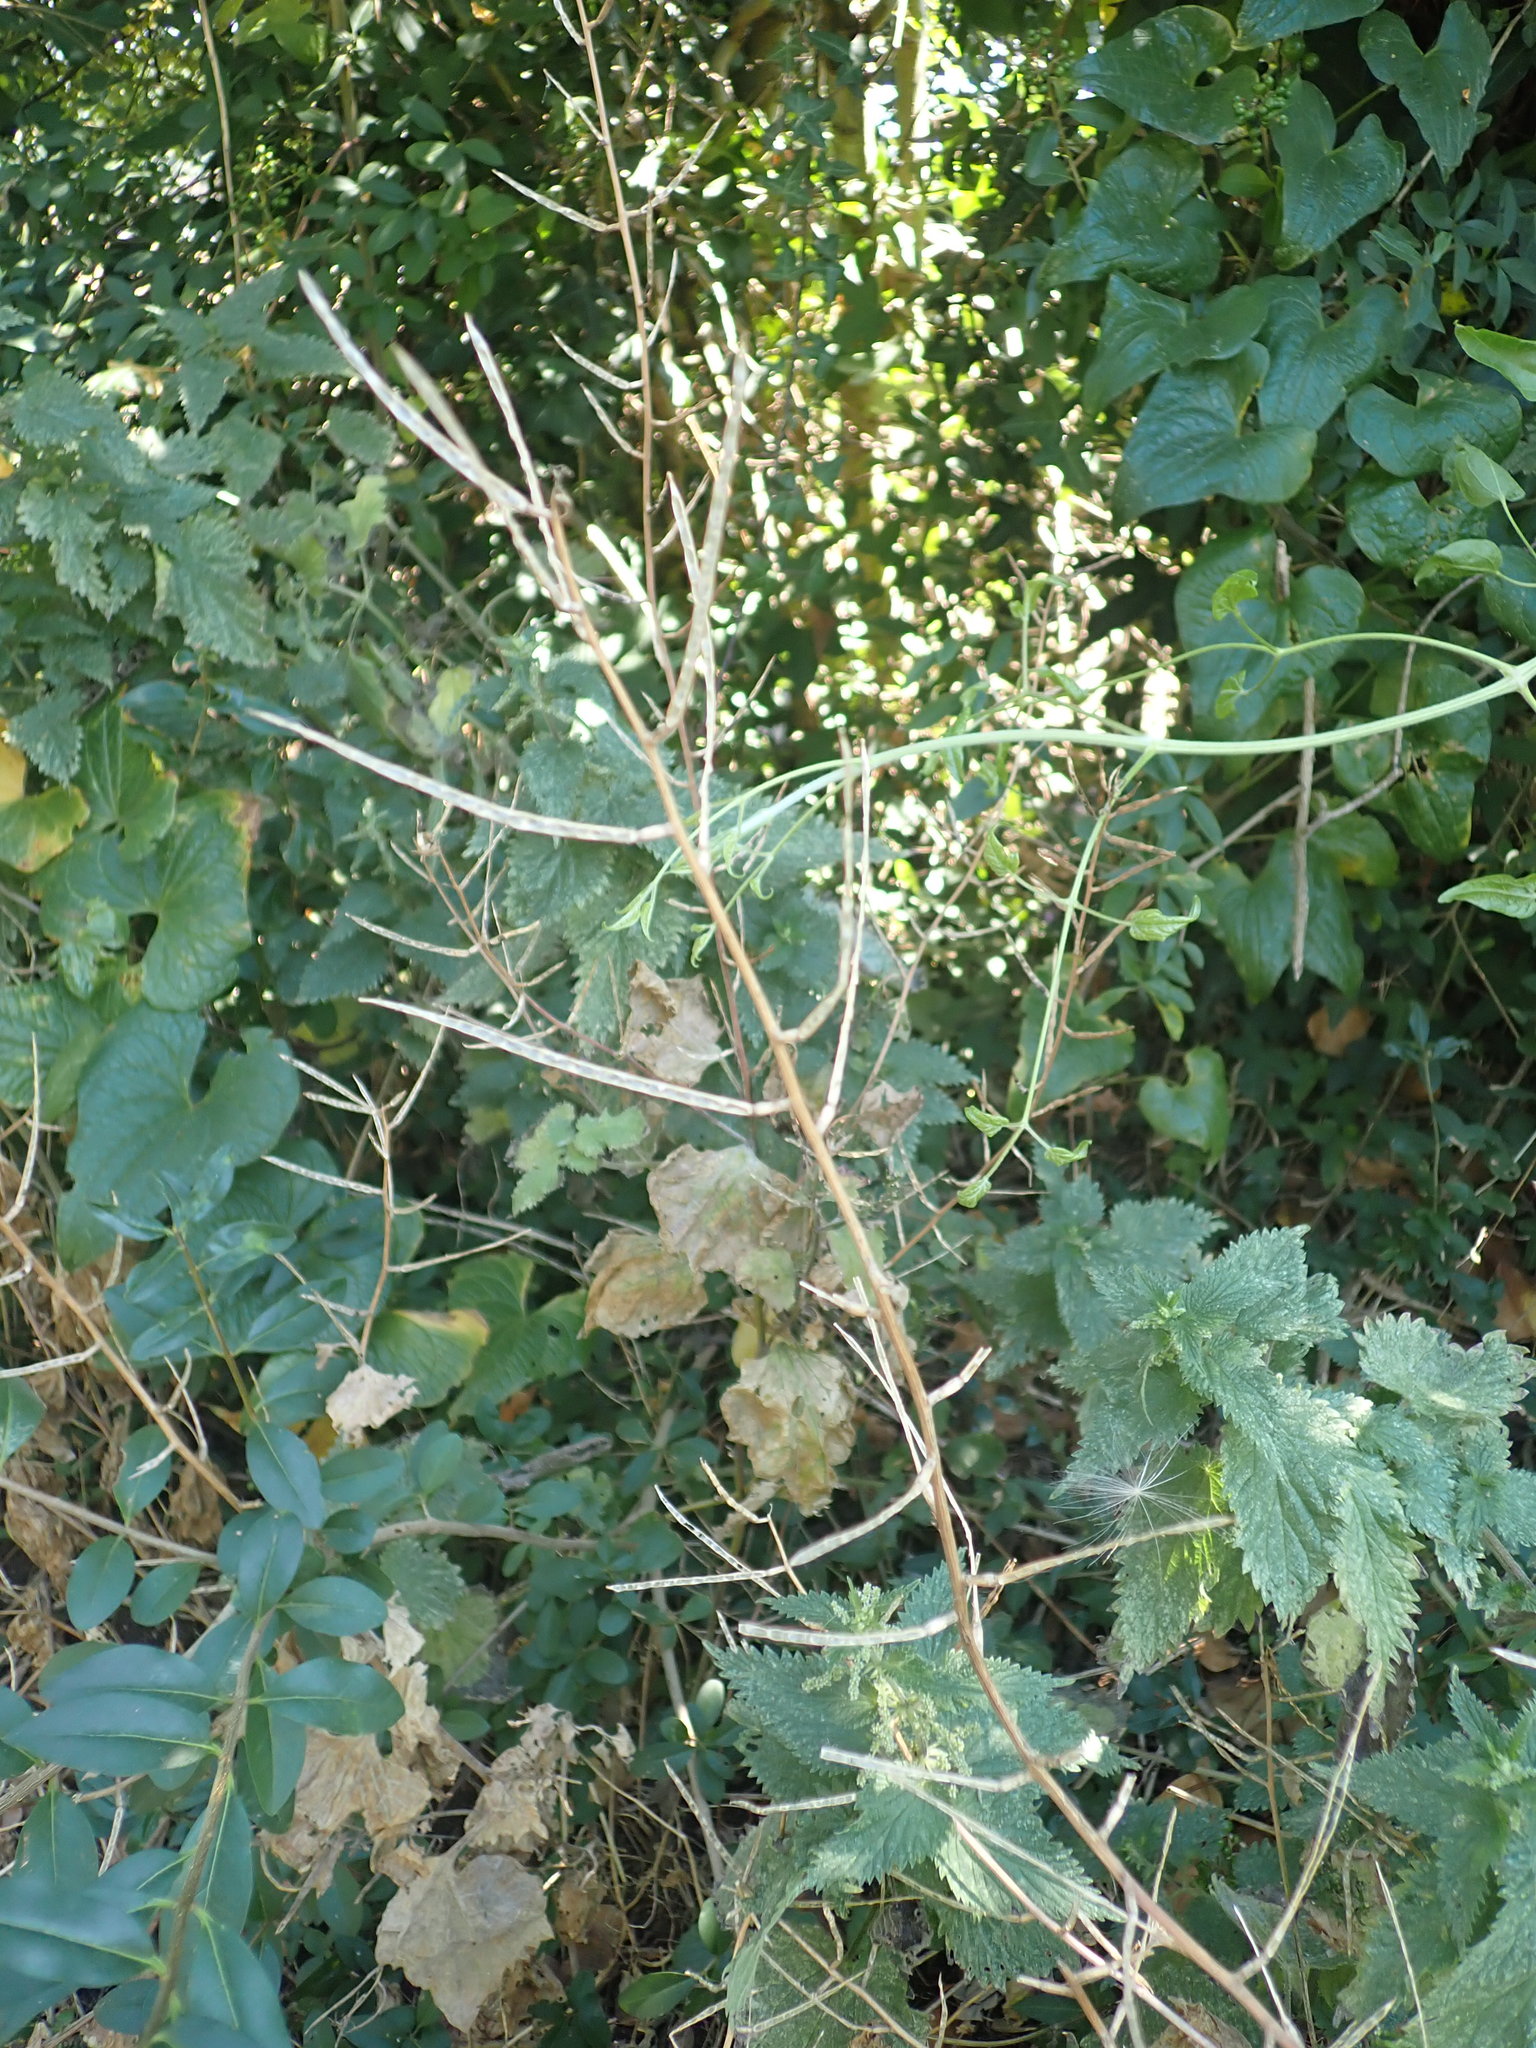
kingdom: Plantae
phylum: Tracheophyta
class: Magnoliopsida
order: Brassicales
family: Brassicaceae
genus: Alliaria
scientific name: Alliaria petiolata
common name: Garlic mustard
